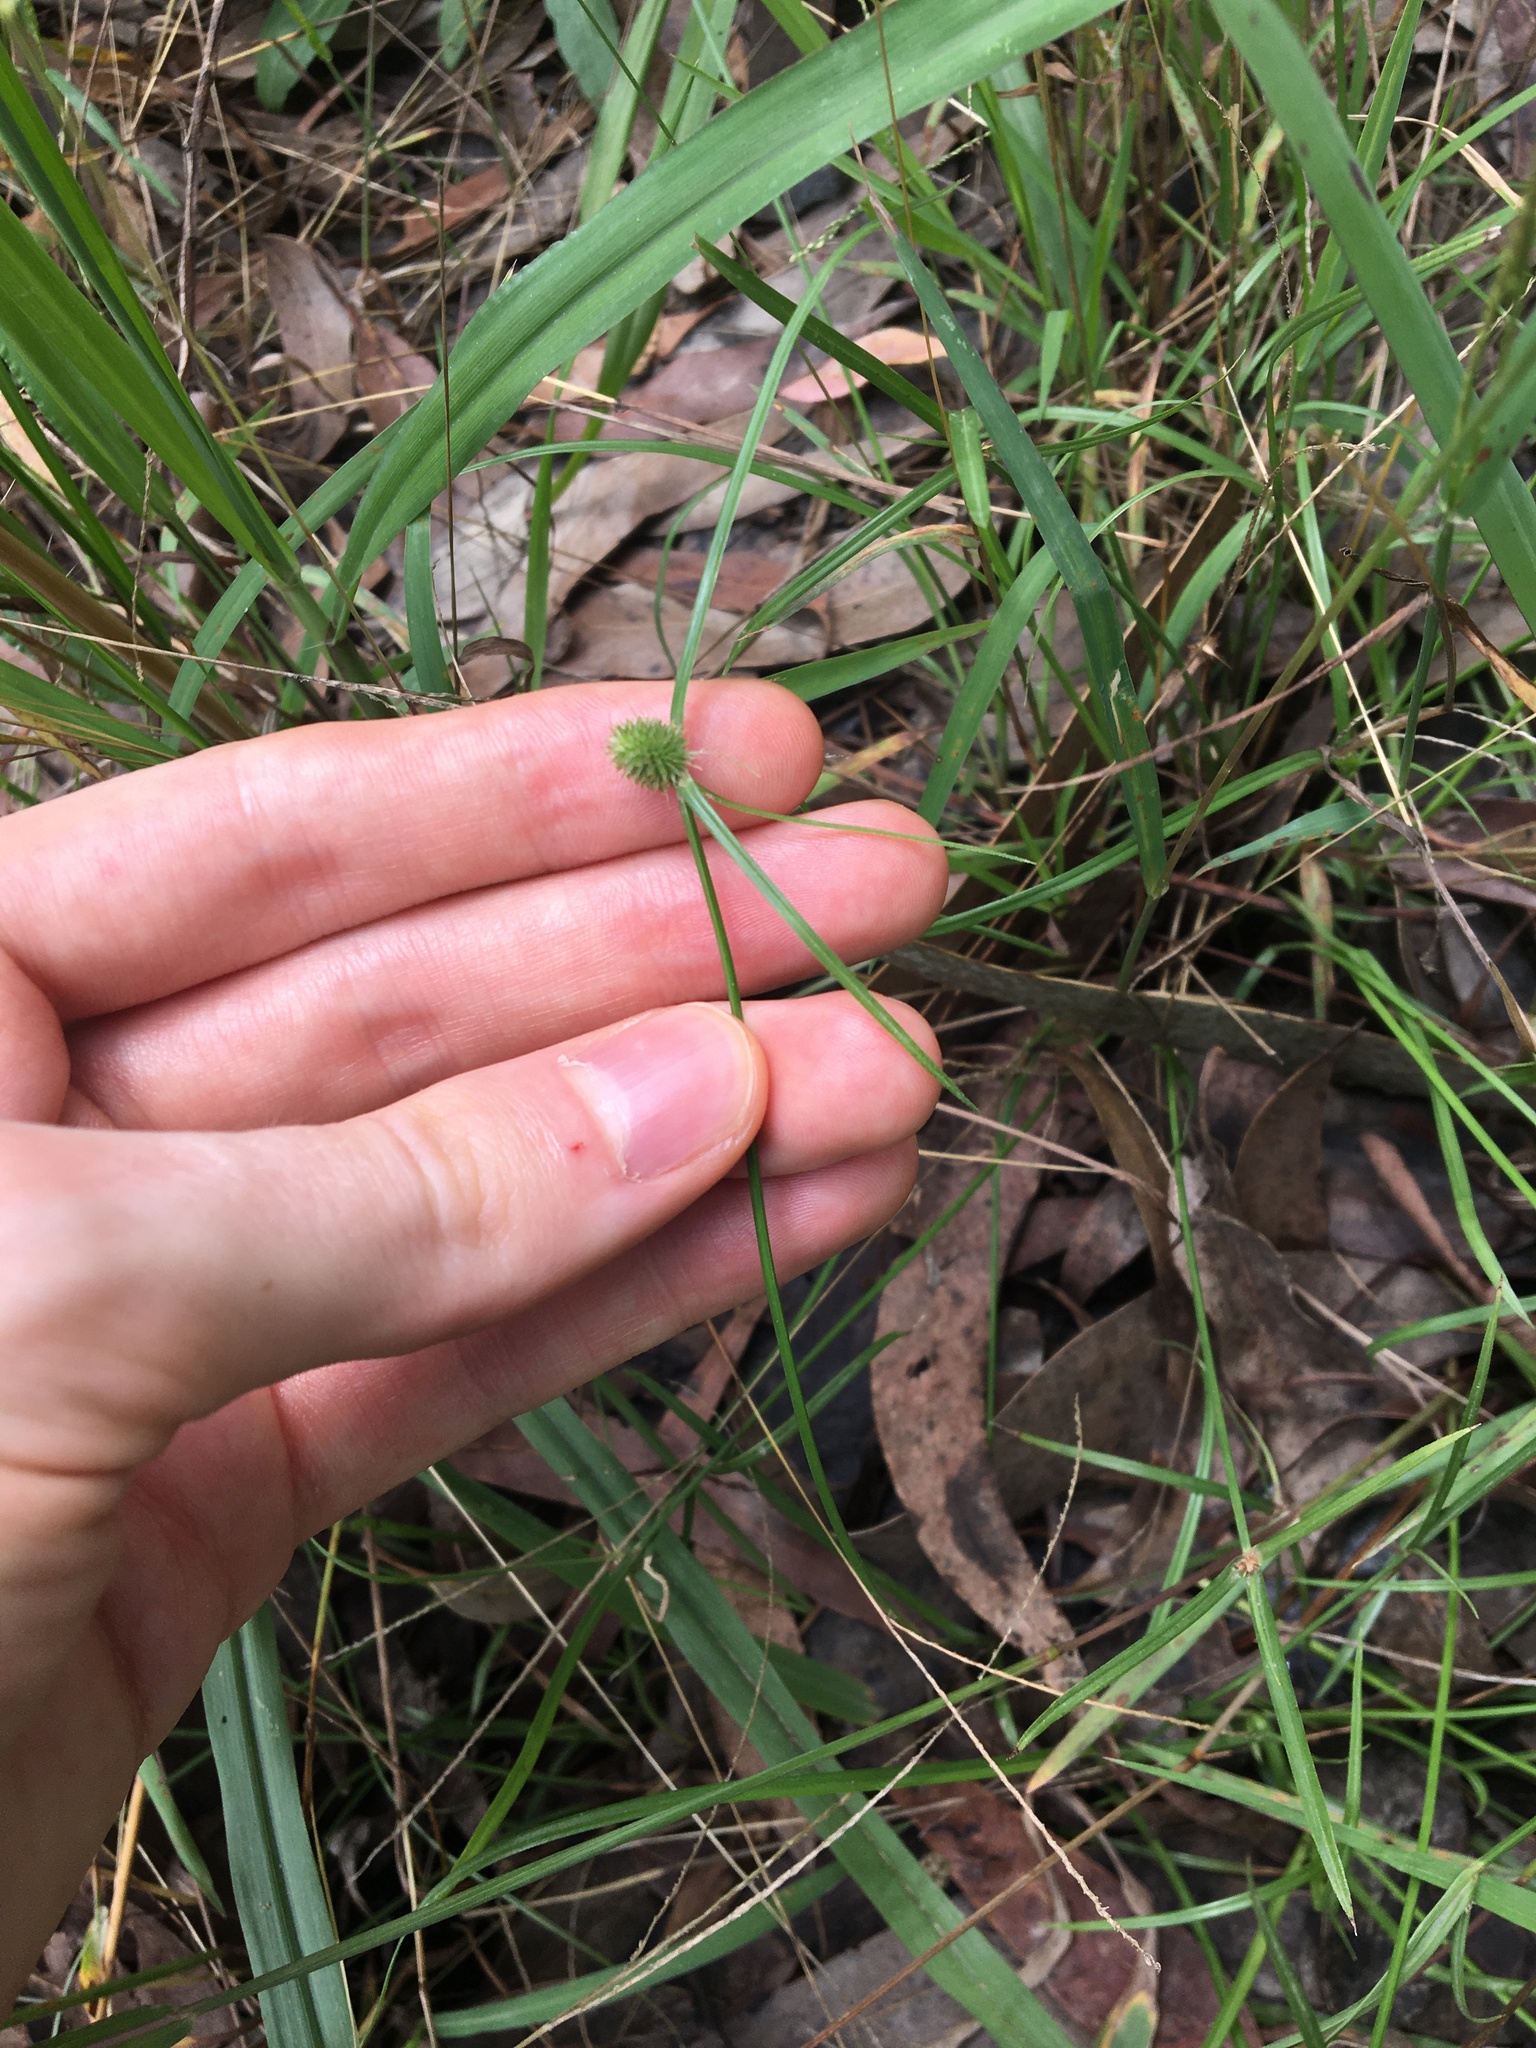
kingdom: Plantae
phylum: Tracheophyta
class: Liliopsida
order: Poales
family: Cyperaceae
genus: Cyperus
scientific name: Cyperus brevifolius
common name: Globe kyllinga
